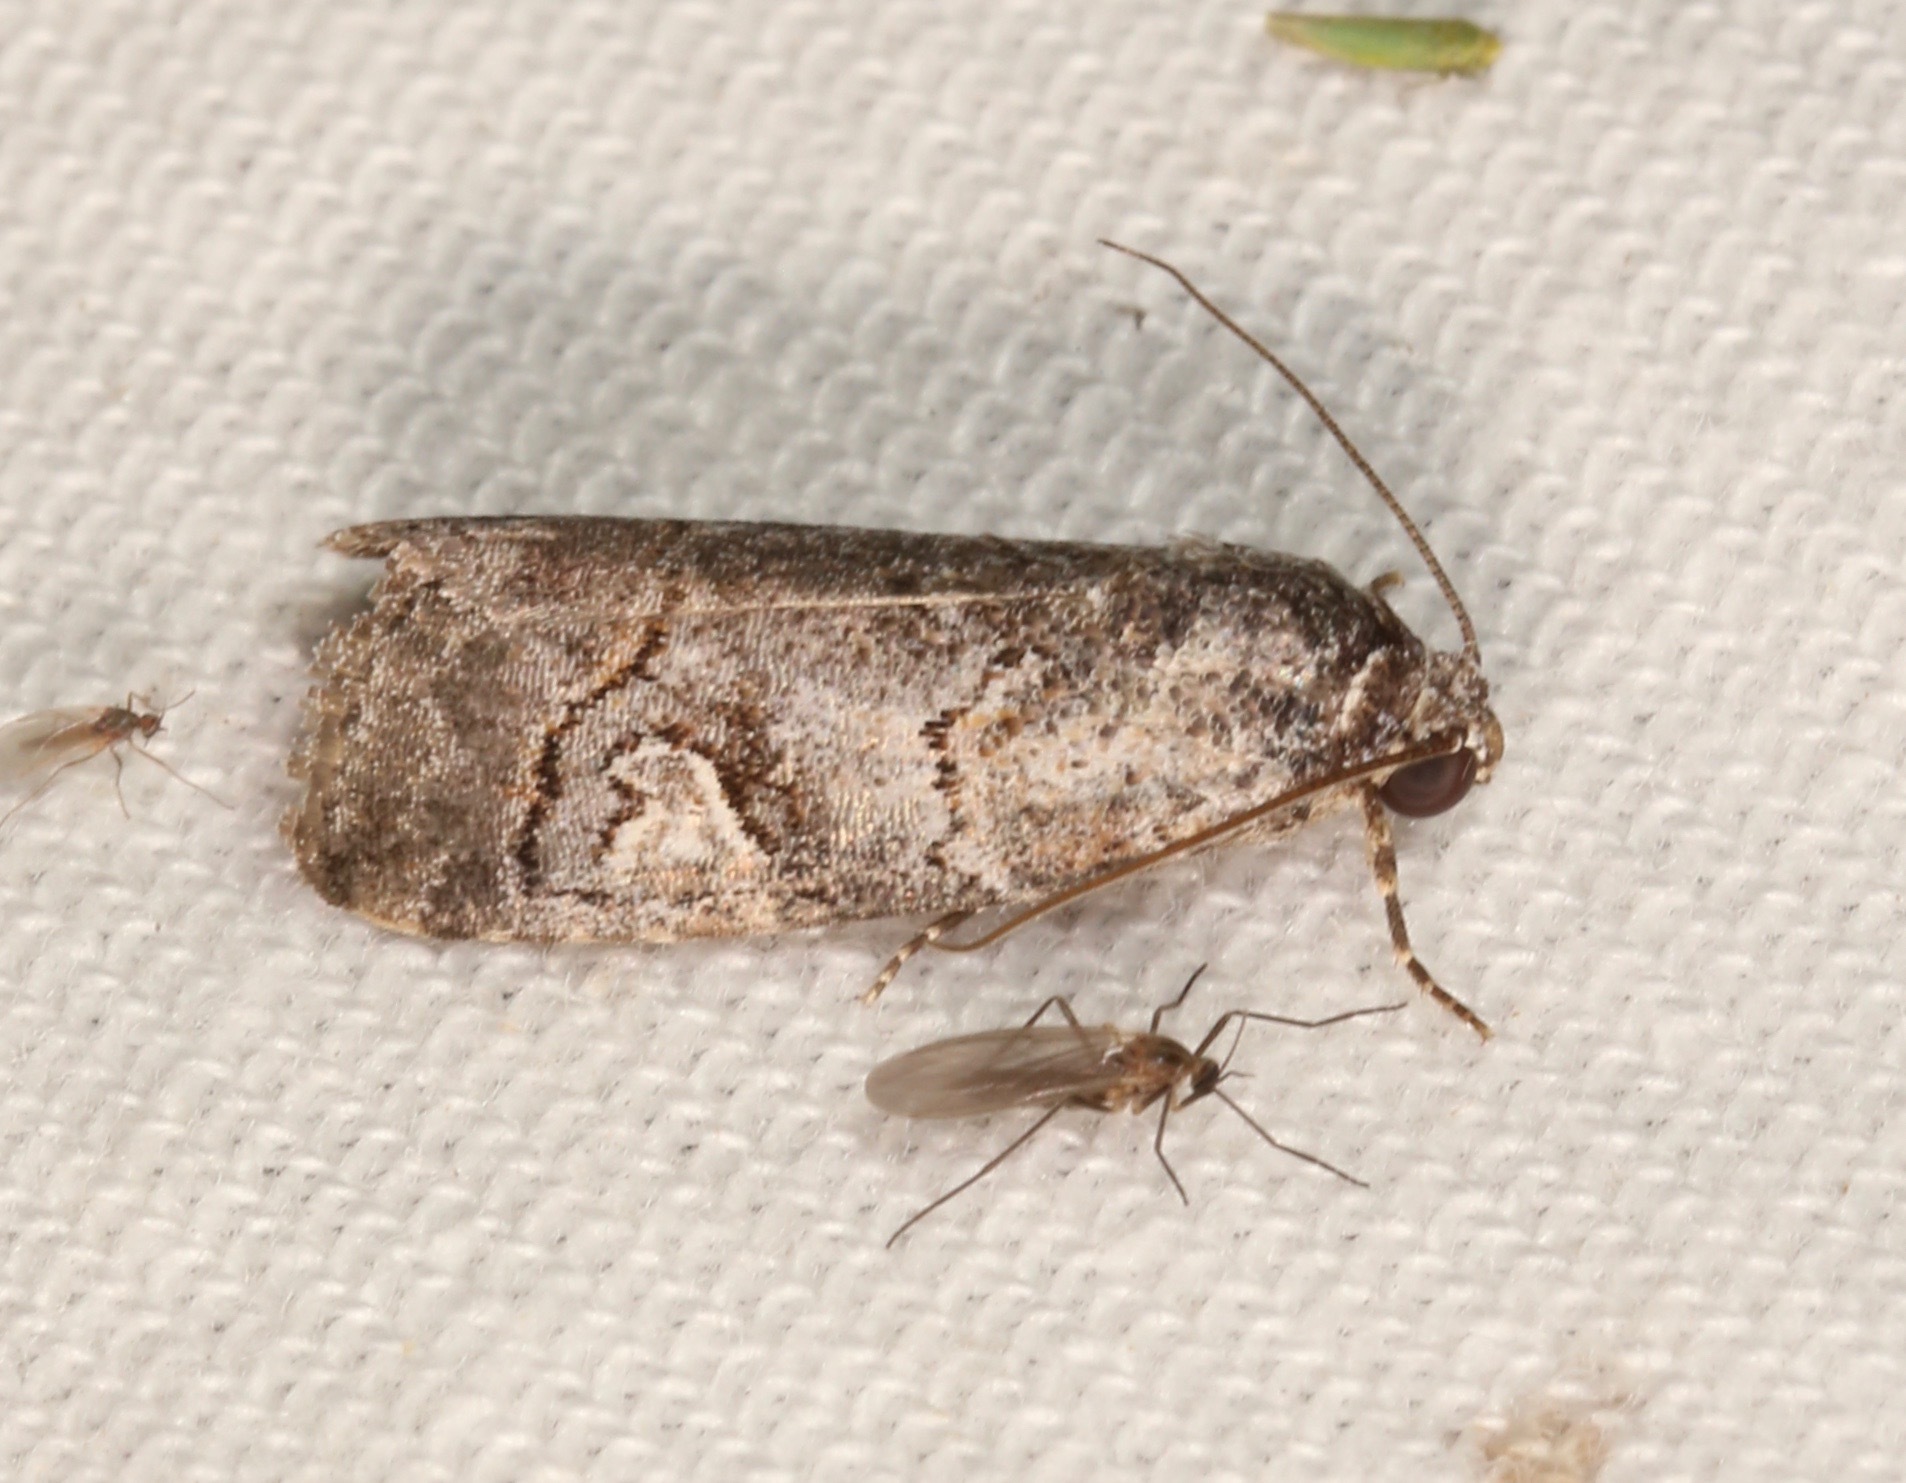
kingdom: Animalia
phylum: Arthropoda
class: Insecta
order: Lepidoptera
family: Noctuidae
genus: Metaponpneumata
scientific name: Metaponpneumata rogenhoferi
